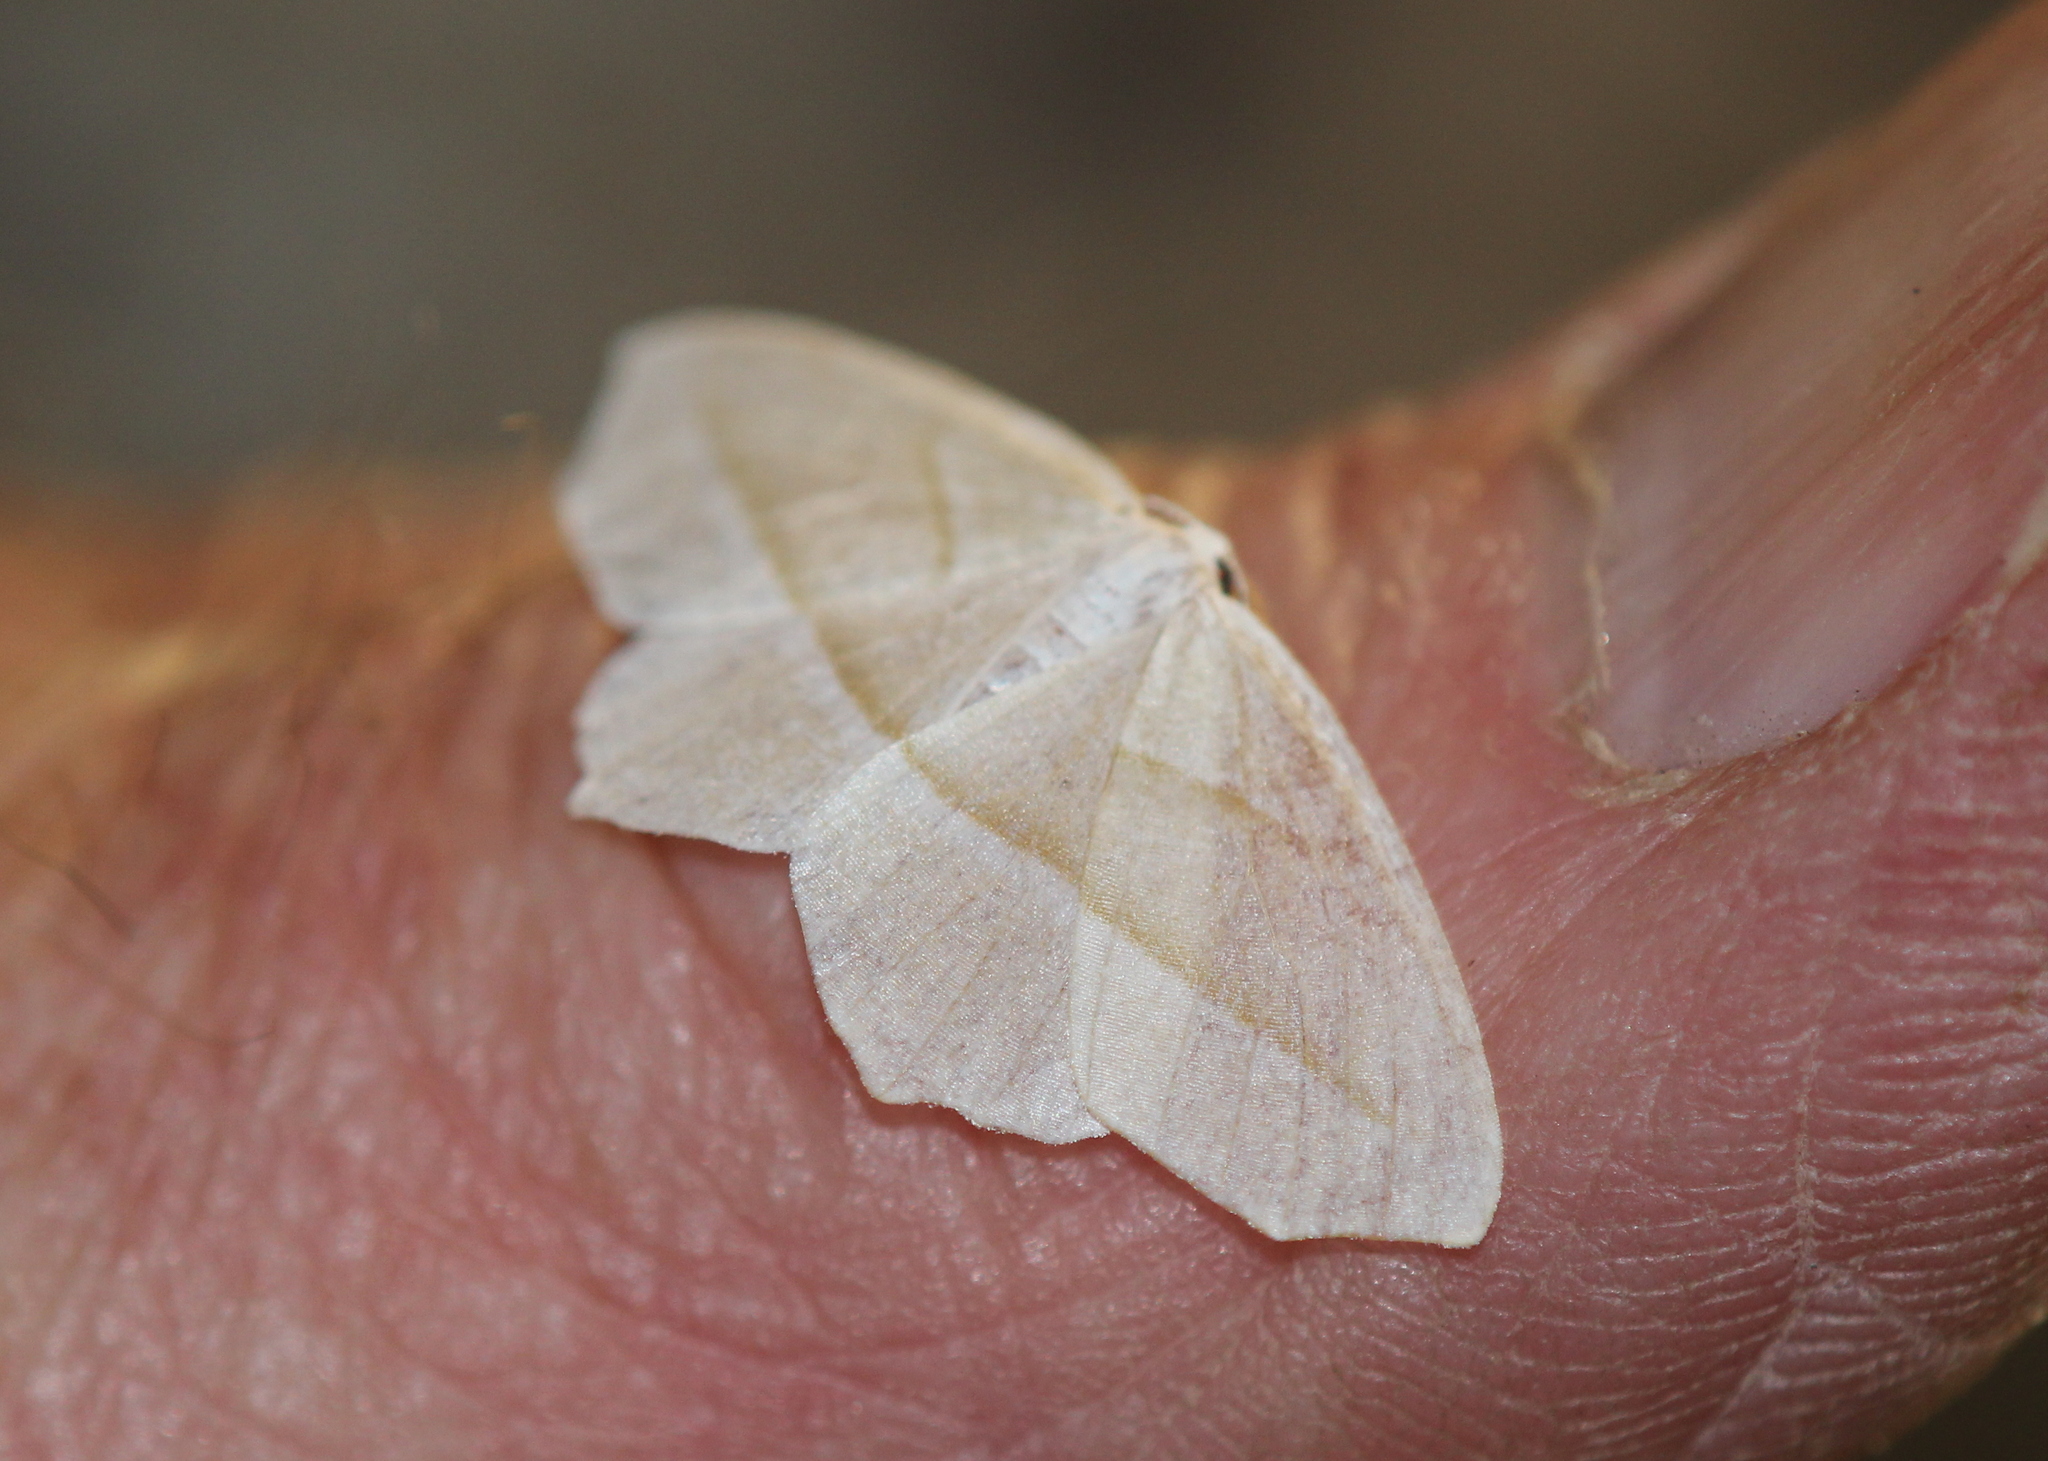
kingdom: Animalia
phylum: Arthropoda
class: Insecta
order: Lepidoptera
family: Geometridae
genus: Campaea
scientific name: Campaea perlata
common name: Fringed looper
